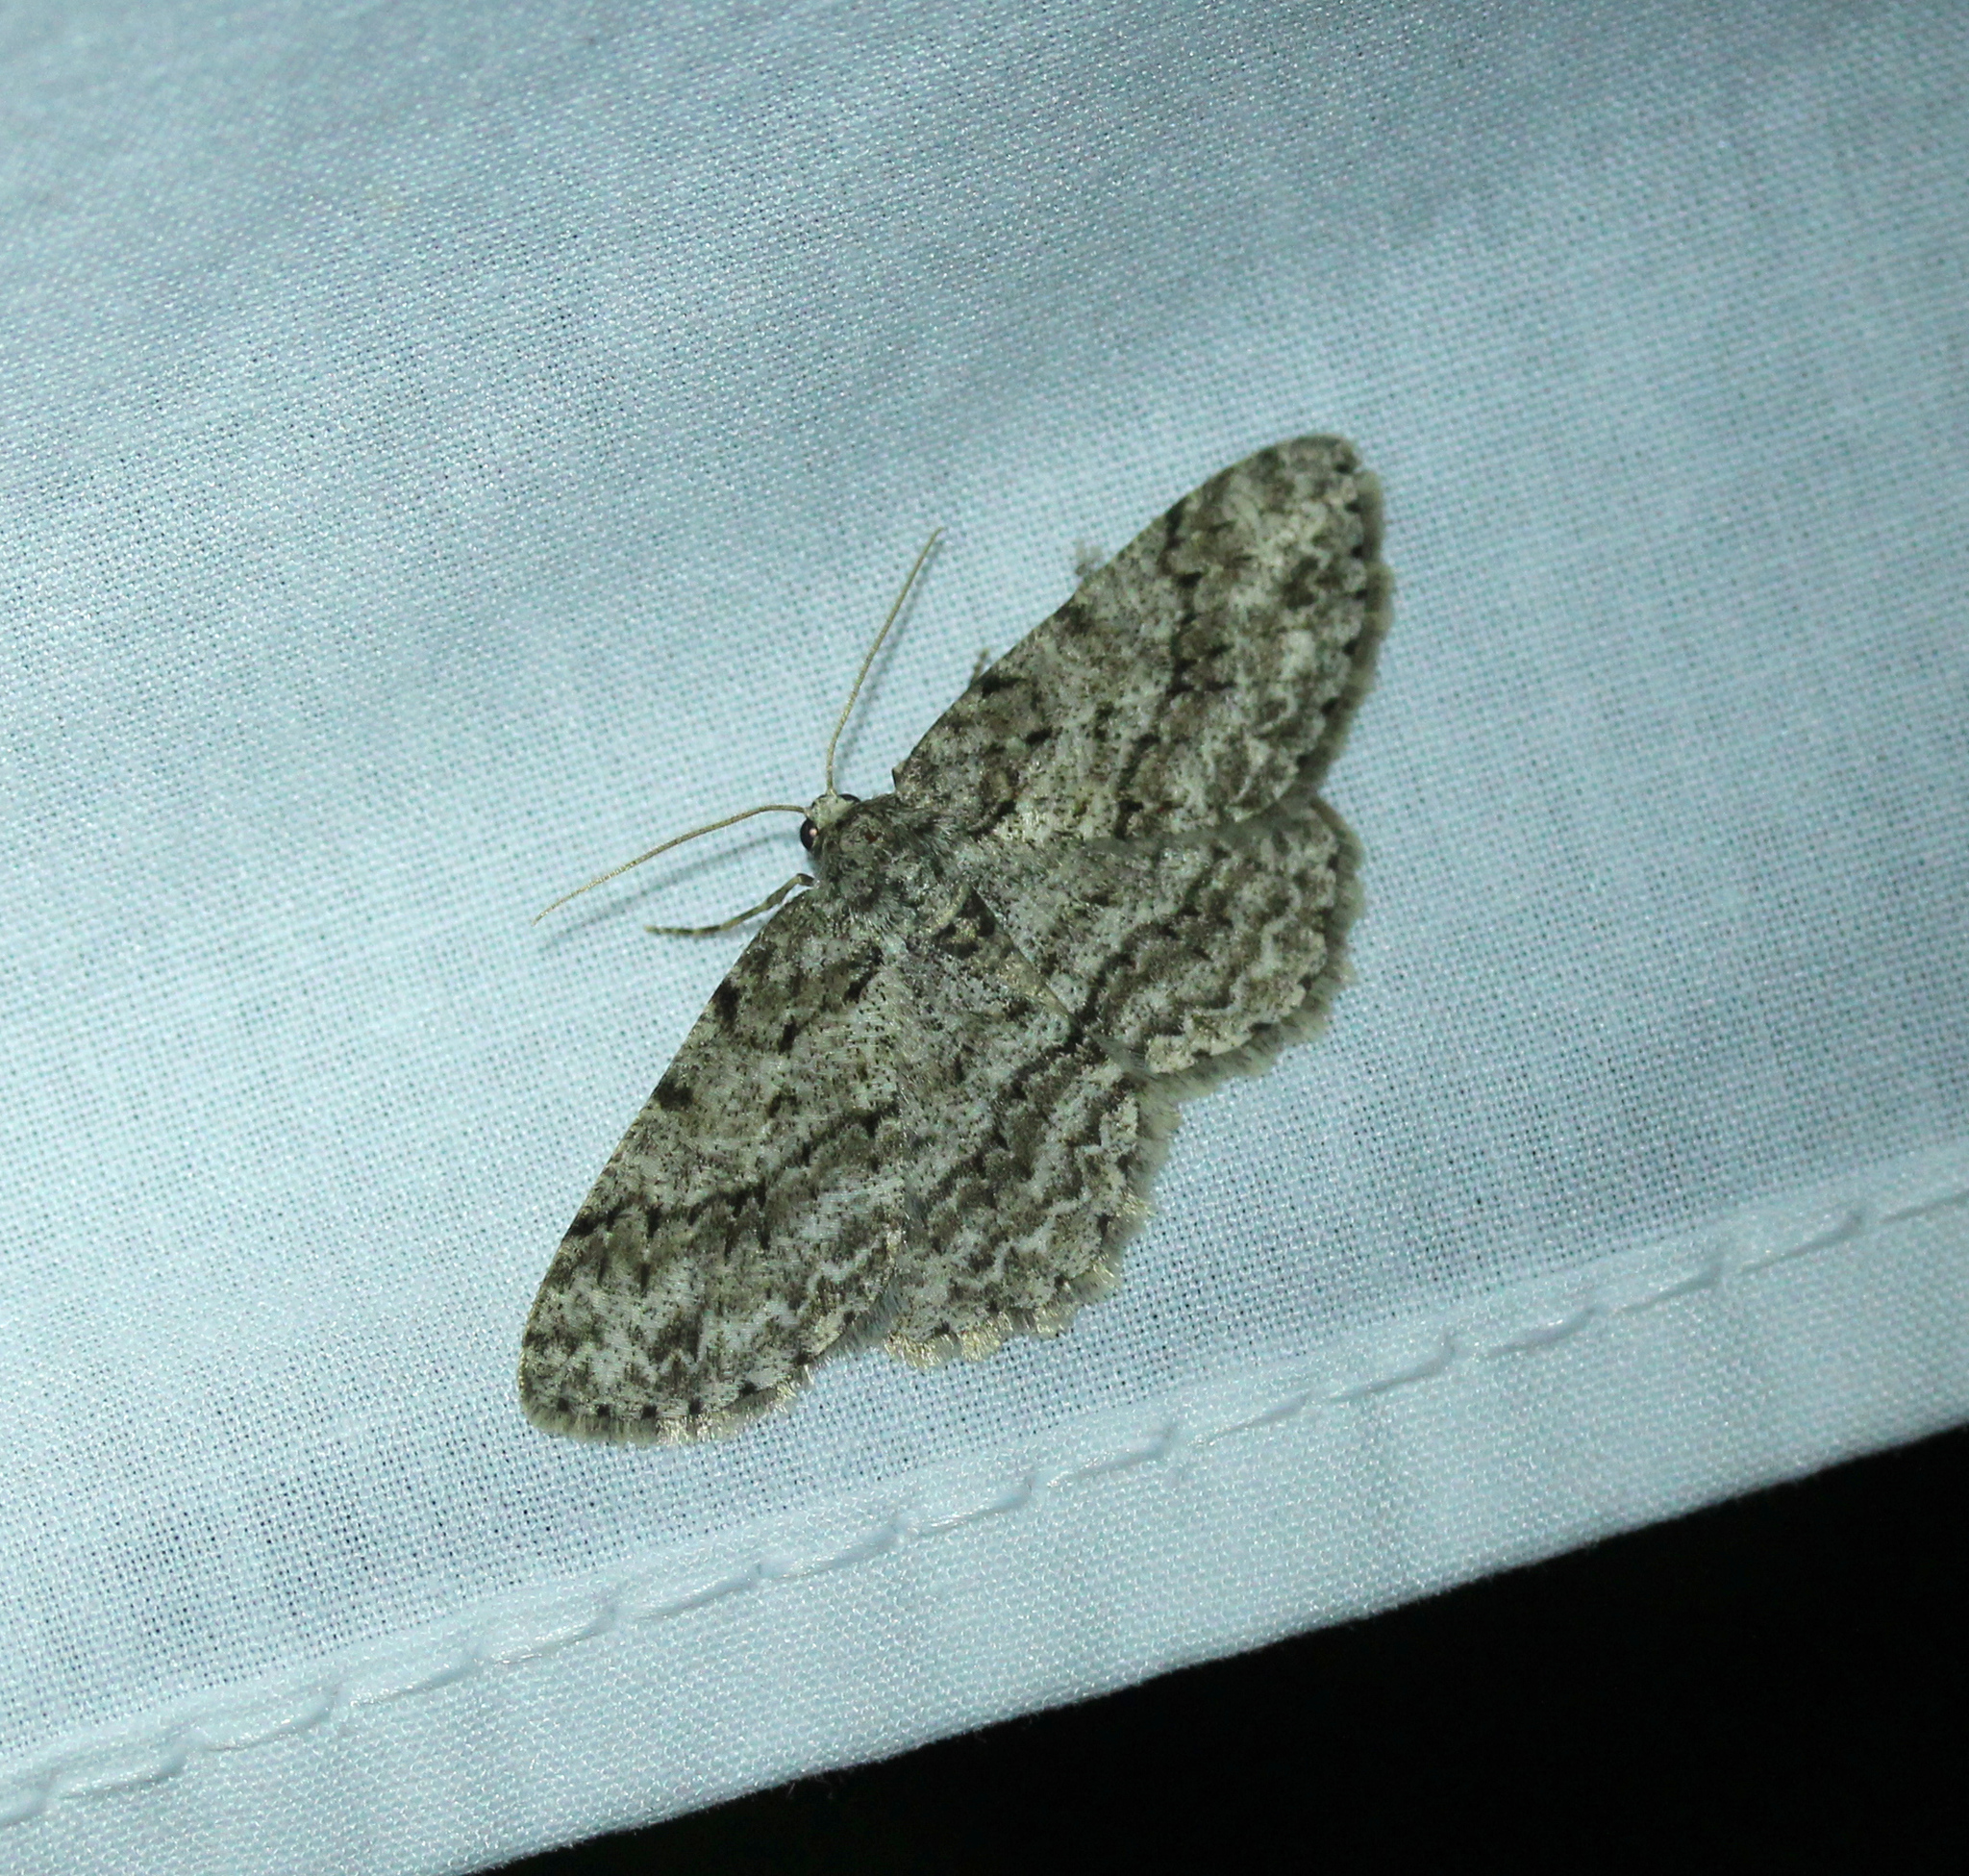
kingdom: Animalia
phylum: Arthropoda
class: Insecta
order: Lepidoptera
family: Geometridae
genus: Ectropis
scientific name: Ectropis crepuscularia
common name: Engrailed
